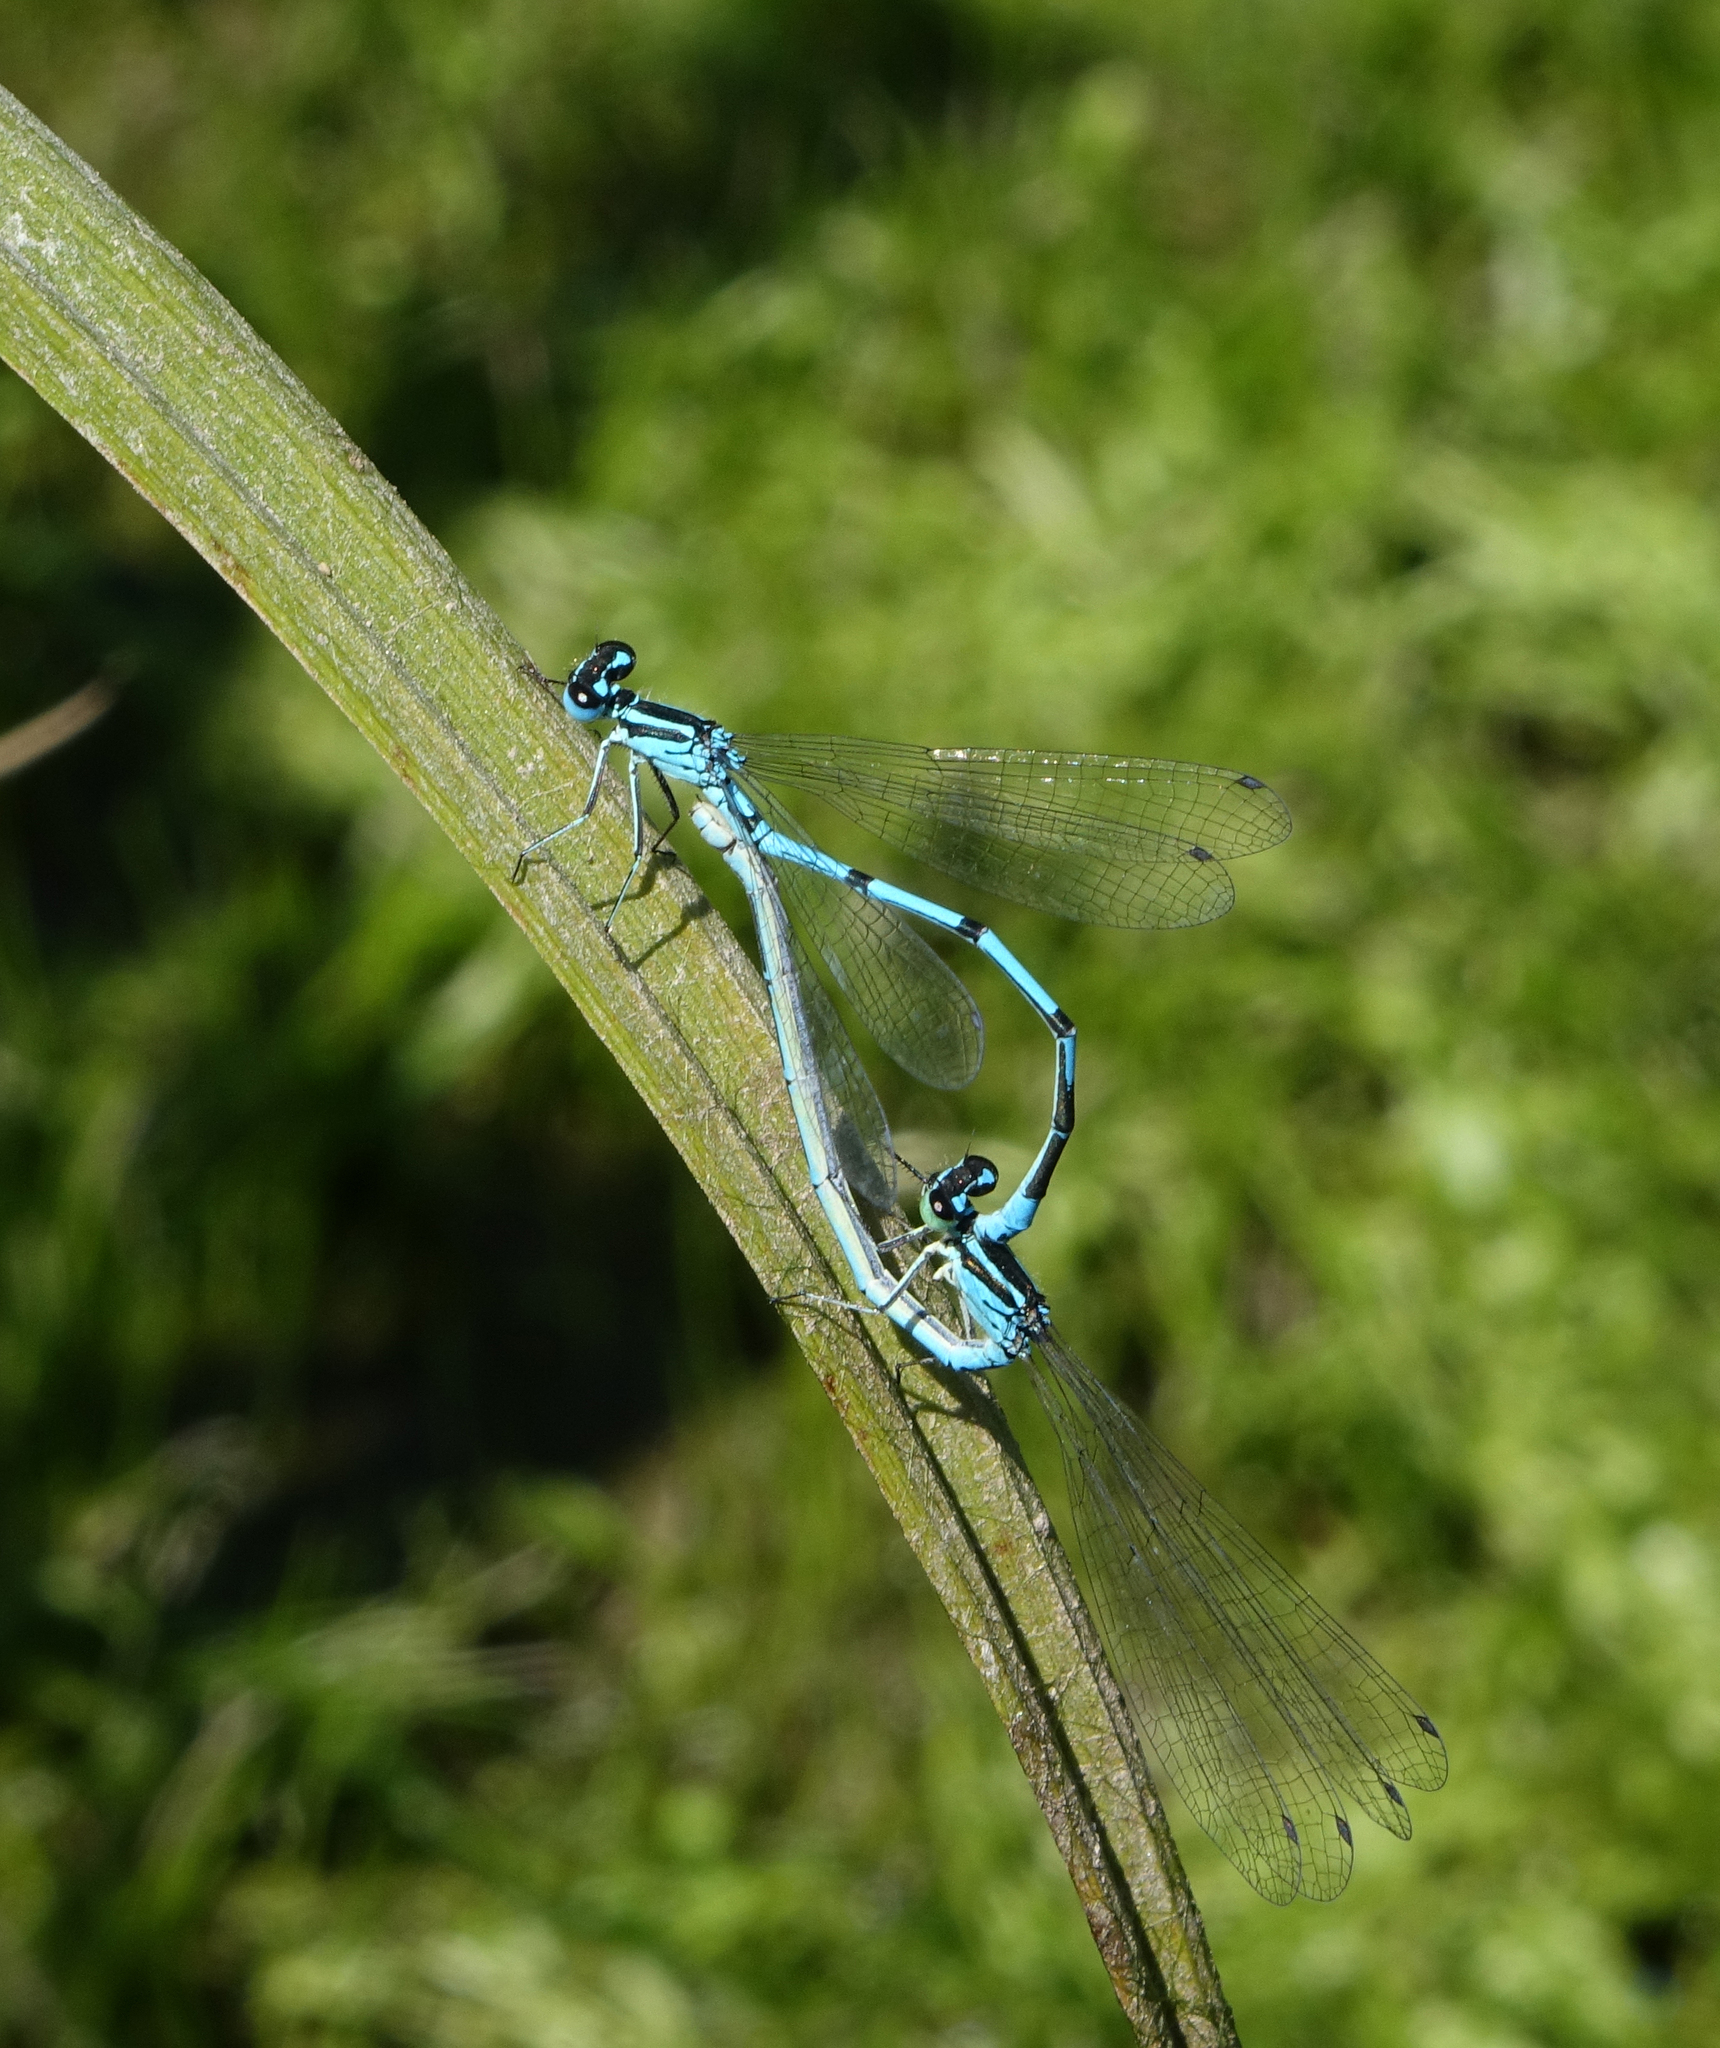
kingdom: Animalia
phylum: Arthropoda
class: Insecta
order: Odonata
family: Coenagrionidae
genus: Coenagrion
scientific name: Coenagrion puella
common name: Azure damselfly
